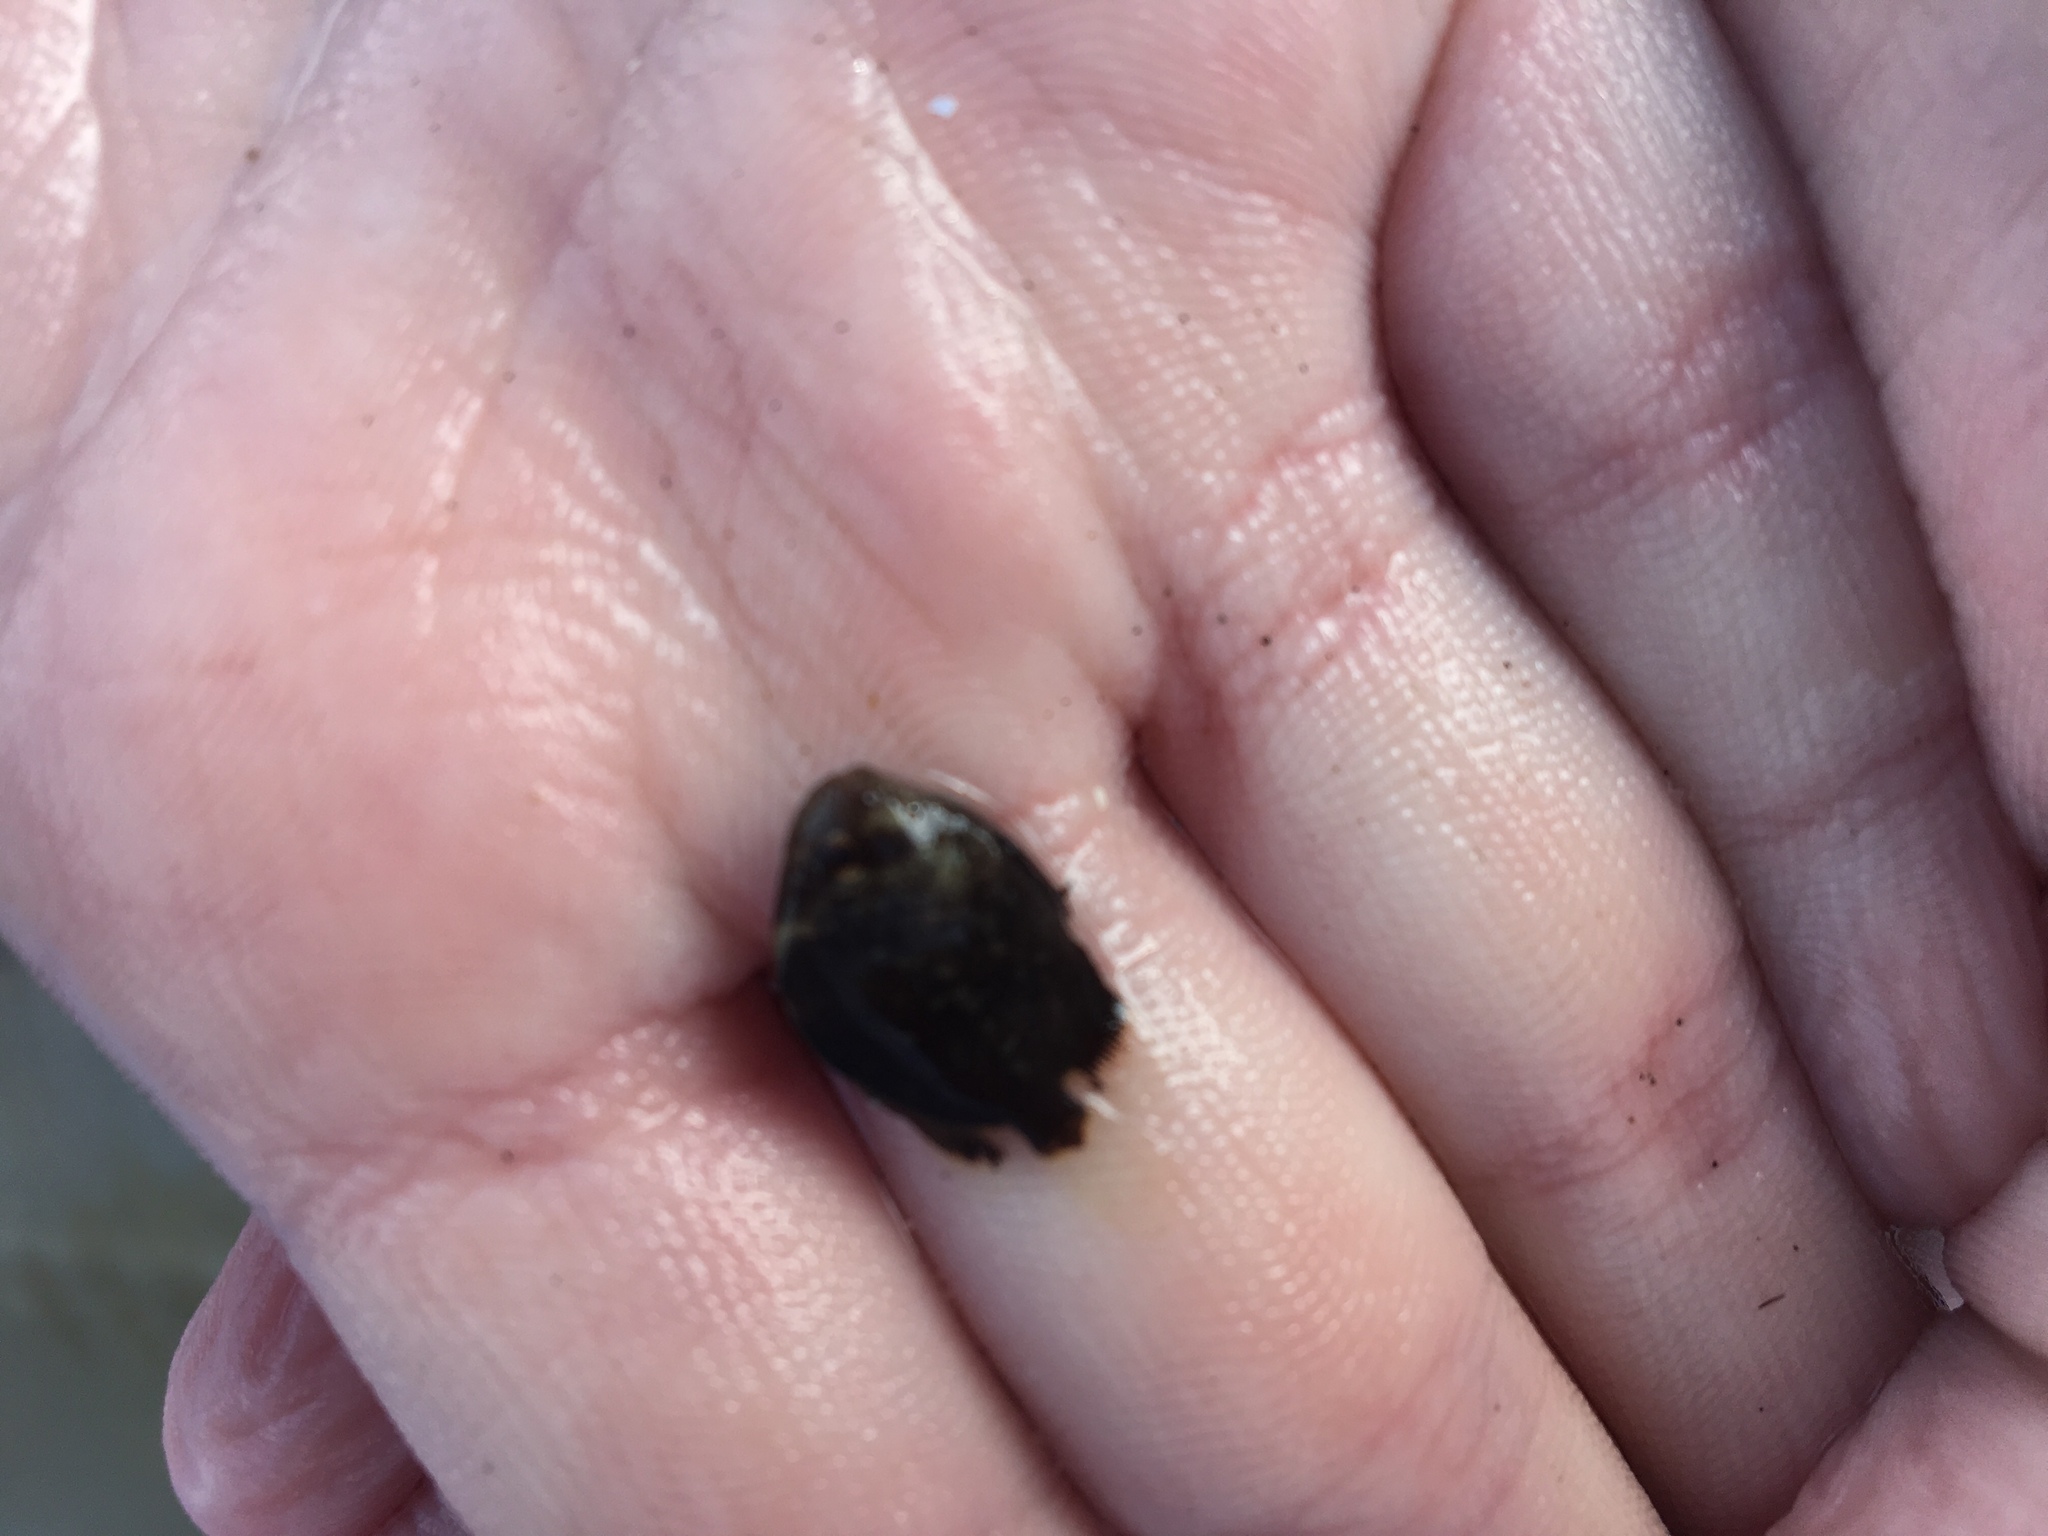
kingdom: Animalia
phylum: Chordata
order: Perciformes
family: Ephippidae
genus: Chaetodipterus
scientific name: Chaetodipterus faber
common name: Ocean cobbler
